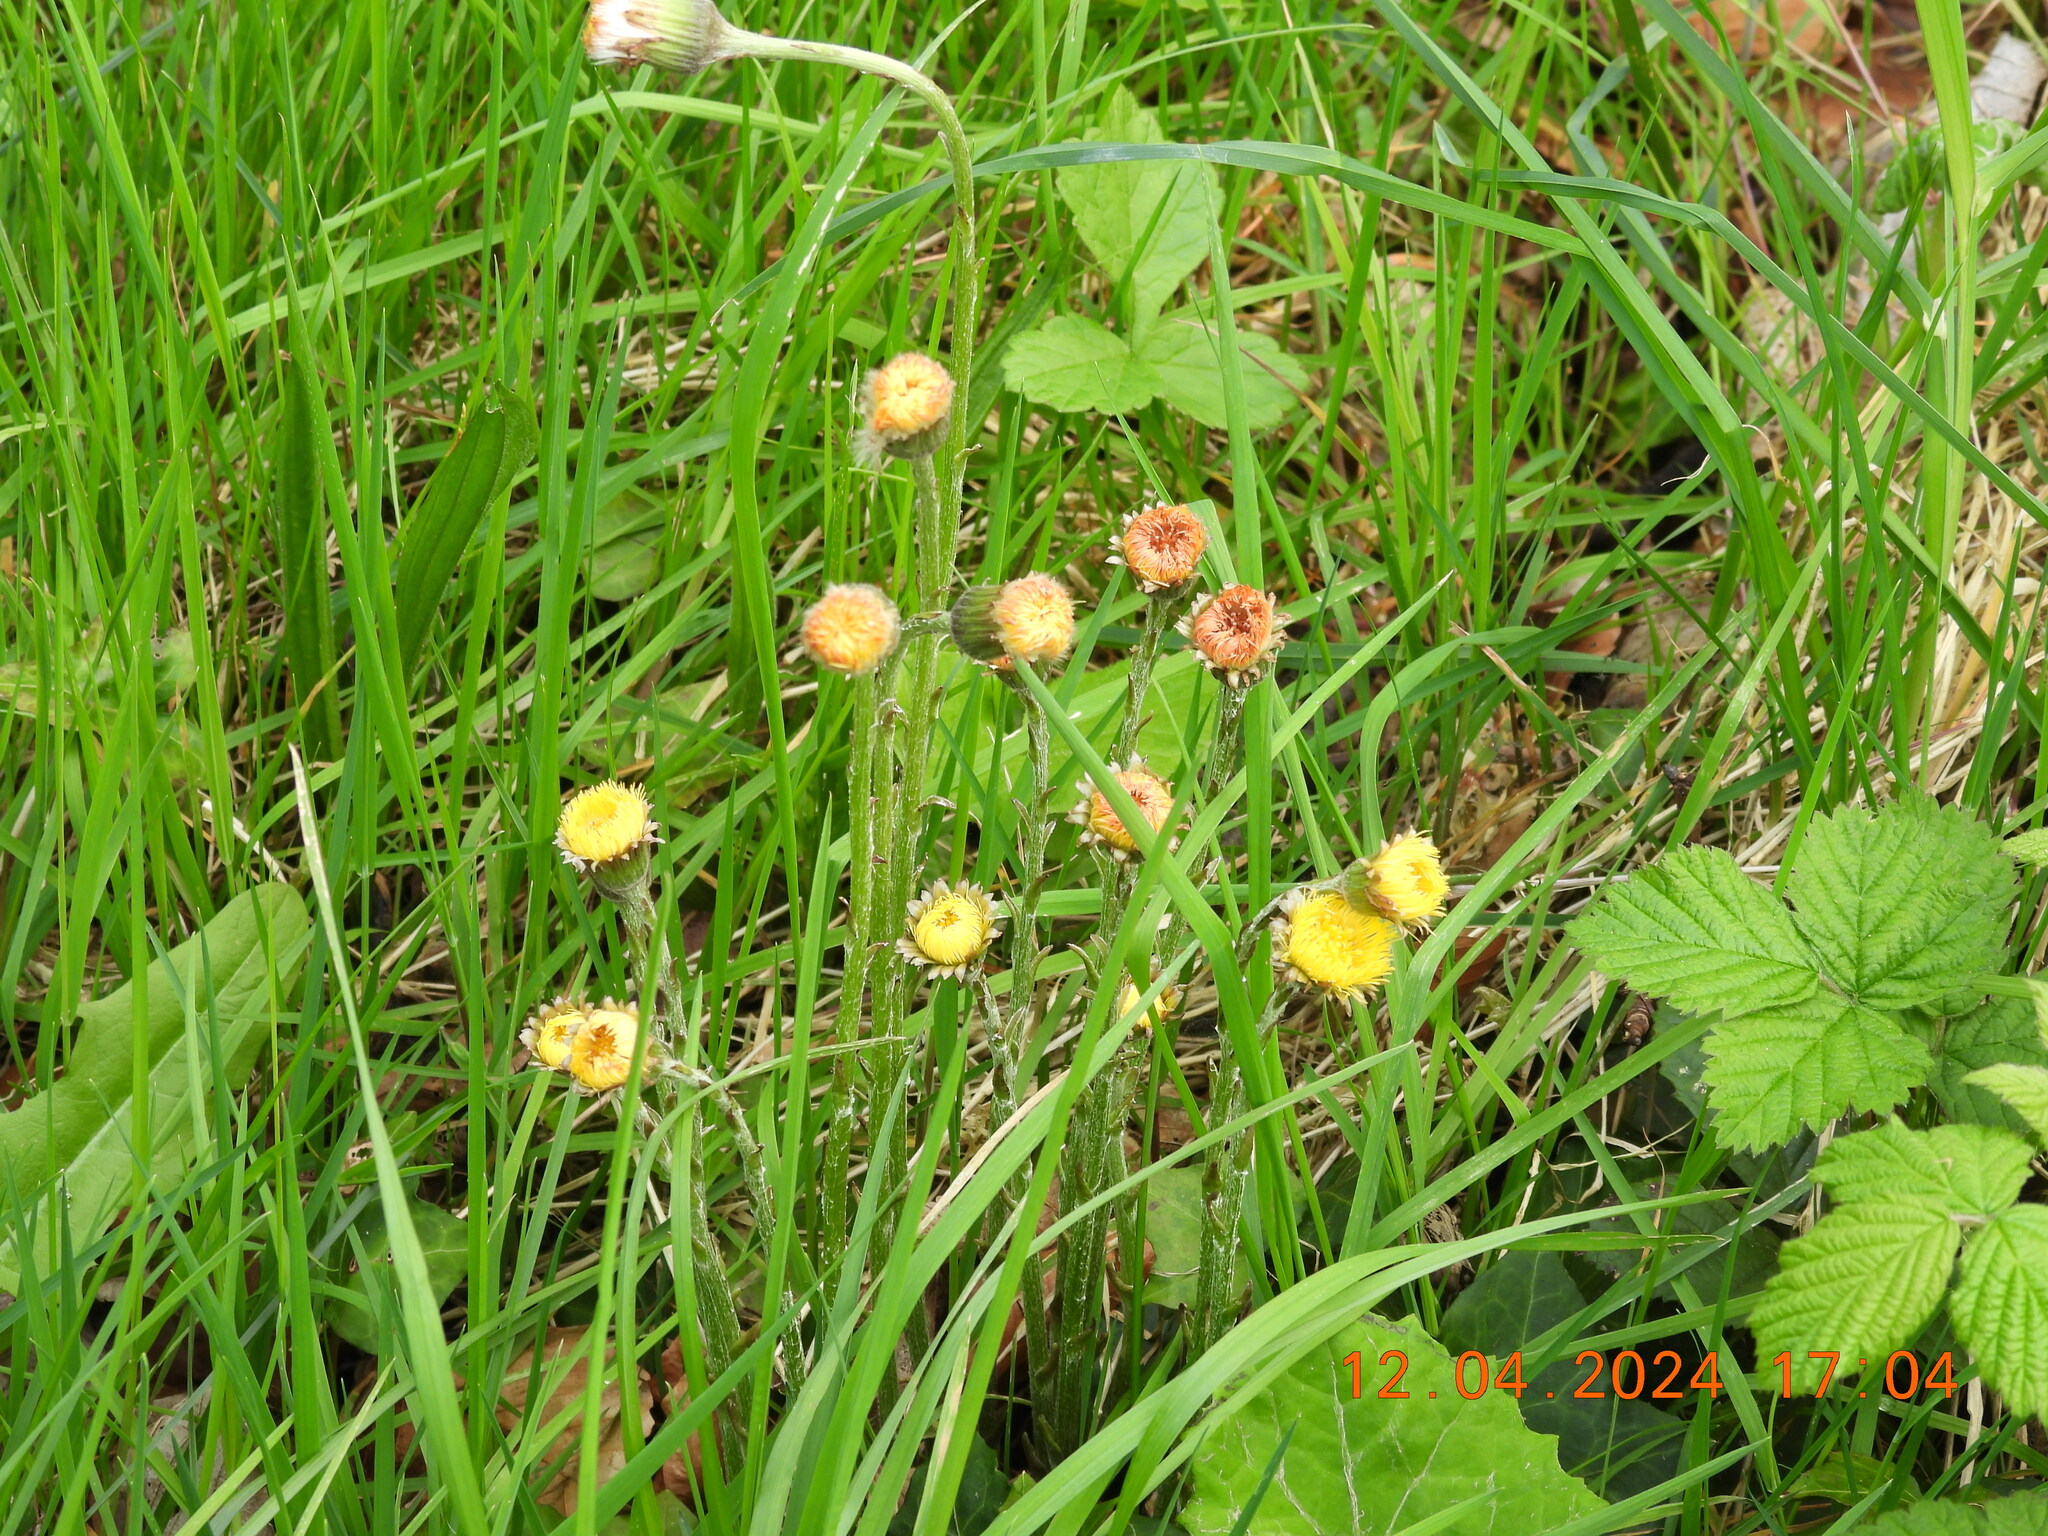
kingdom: Plantae
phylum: Tracheophyta
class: Magnoliopsida
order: Asterales
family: Asteraceae
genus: Tussilago
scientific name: Tussilago farfara
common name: Coltsfoot
